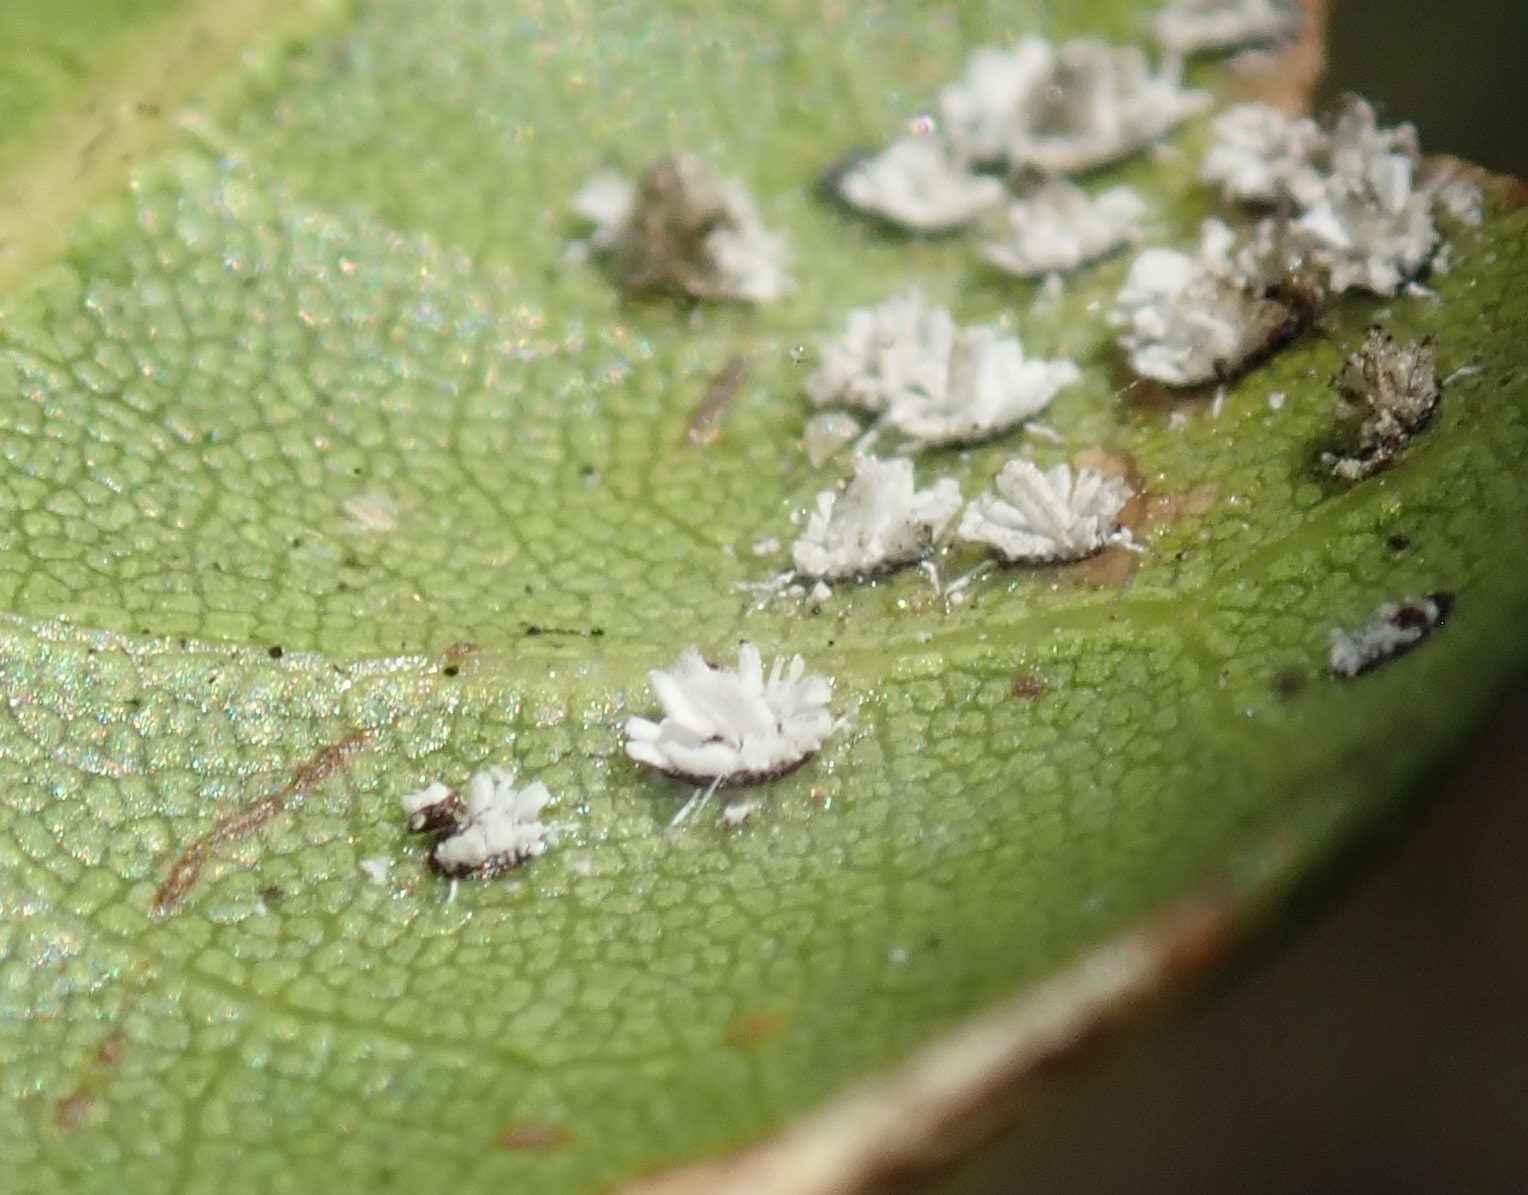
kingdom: Animalia
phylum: Arthropoda
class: Insecta
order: Hemiptera
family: Aleyrodidae
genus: Aleuroplatus
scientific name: Aleuroplatus coronata
